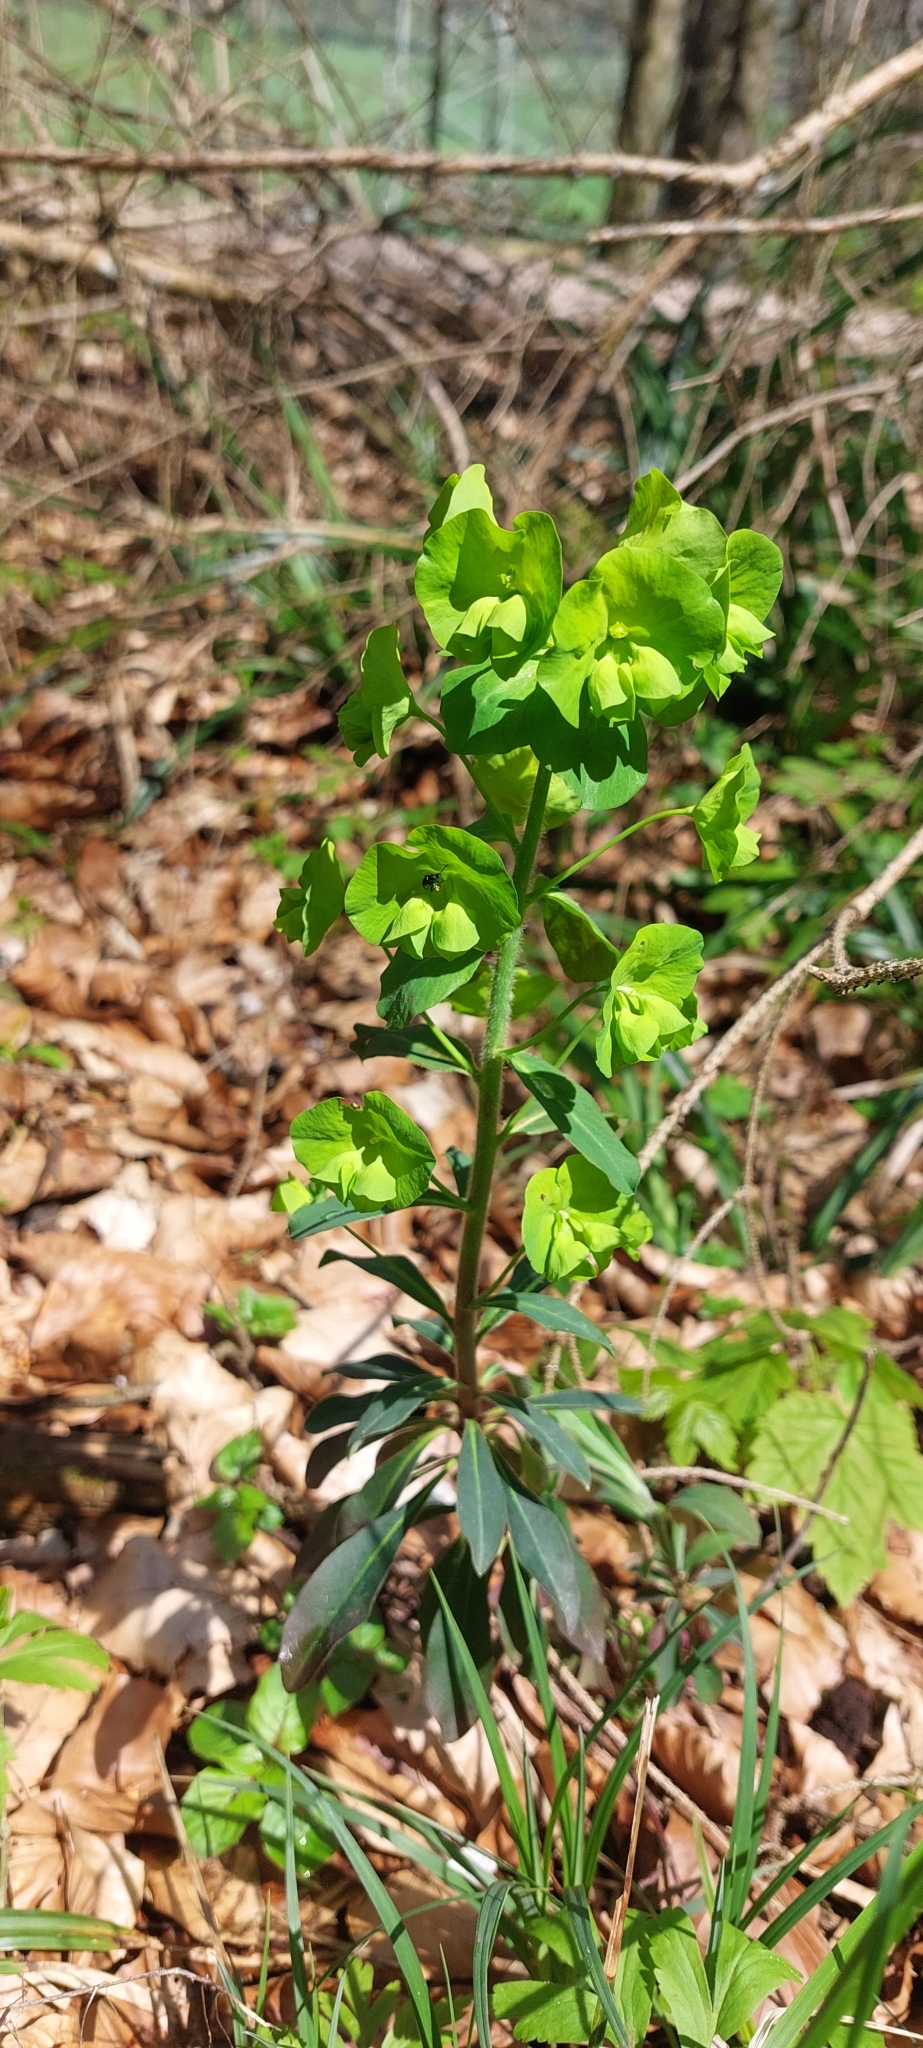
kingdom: Plantae
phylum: Tracheophyta
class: Magnoliopsida
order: Malpighiales
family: Euphorbiaceae
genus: Euphorbia
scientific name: Euphorbia amygdaloides
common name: Wood spurge
